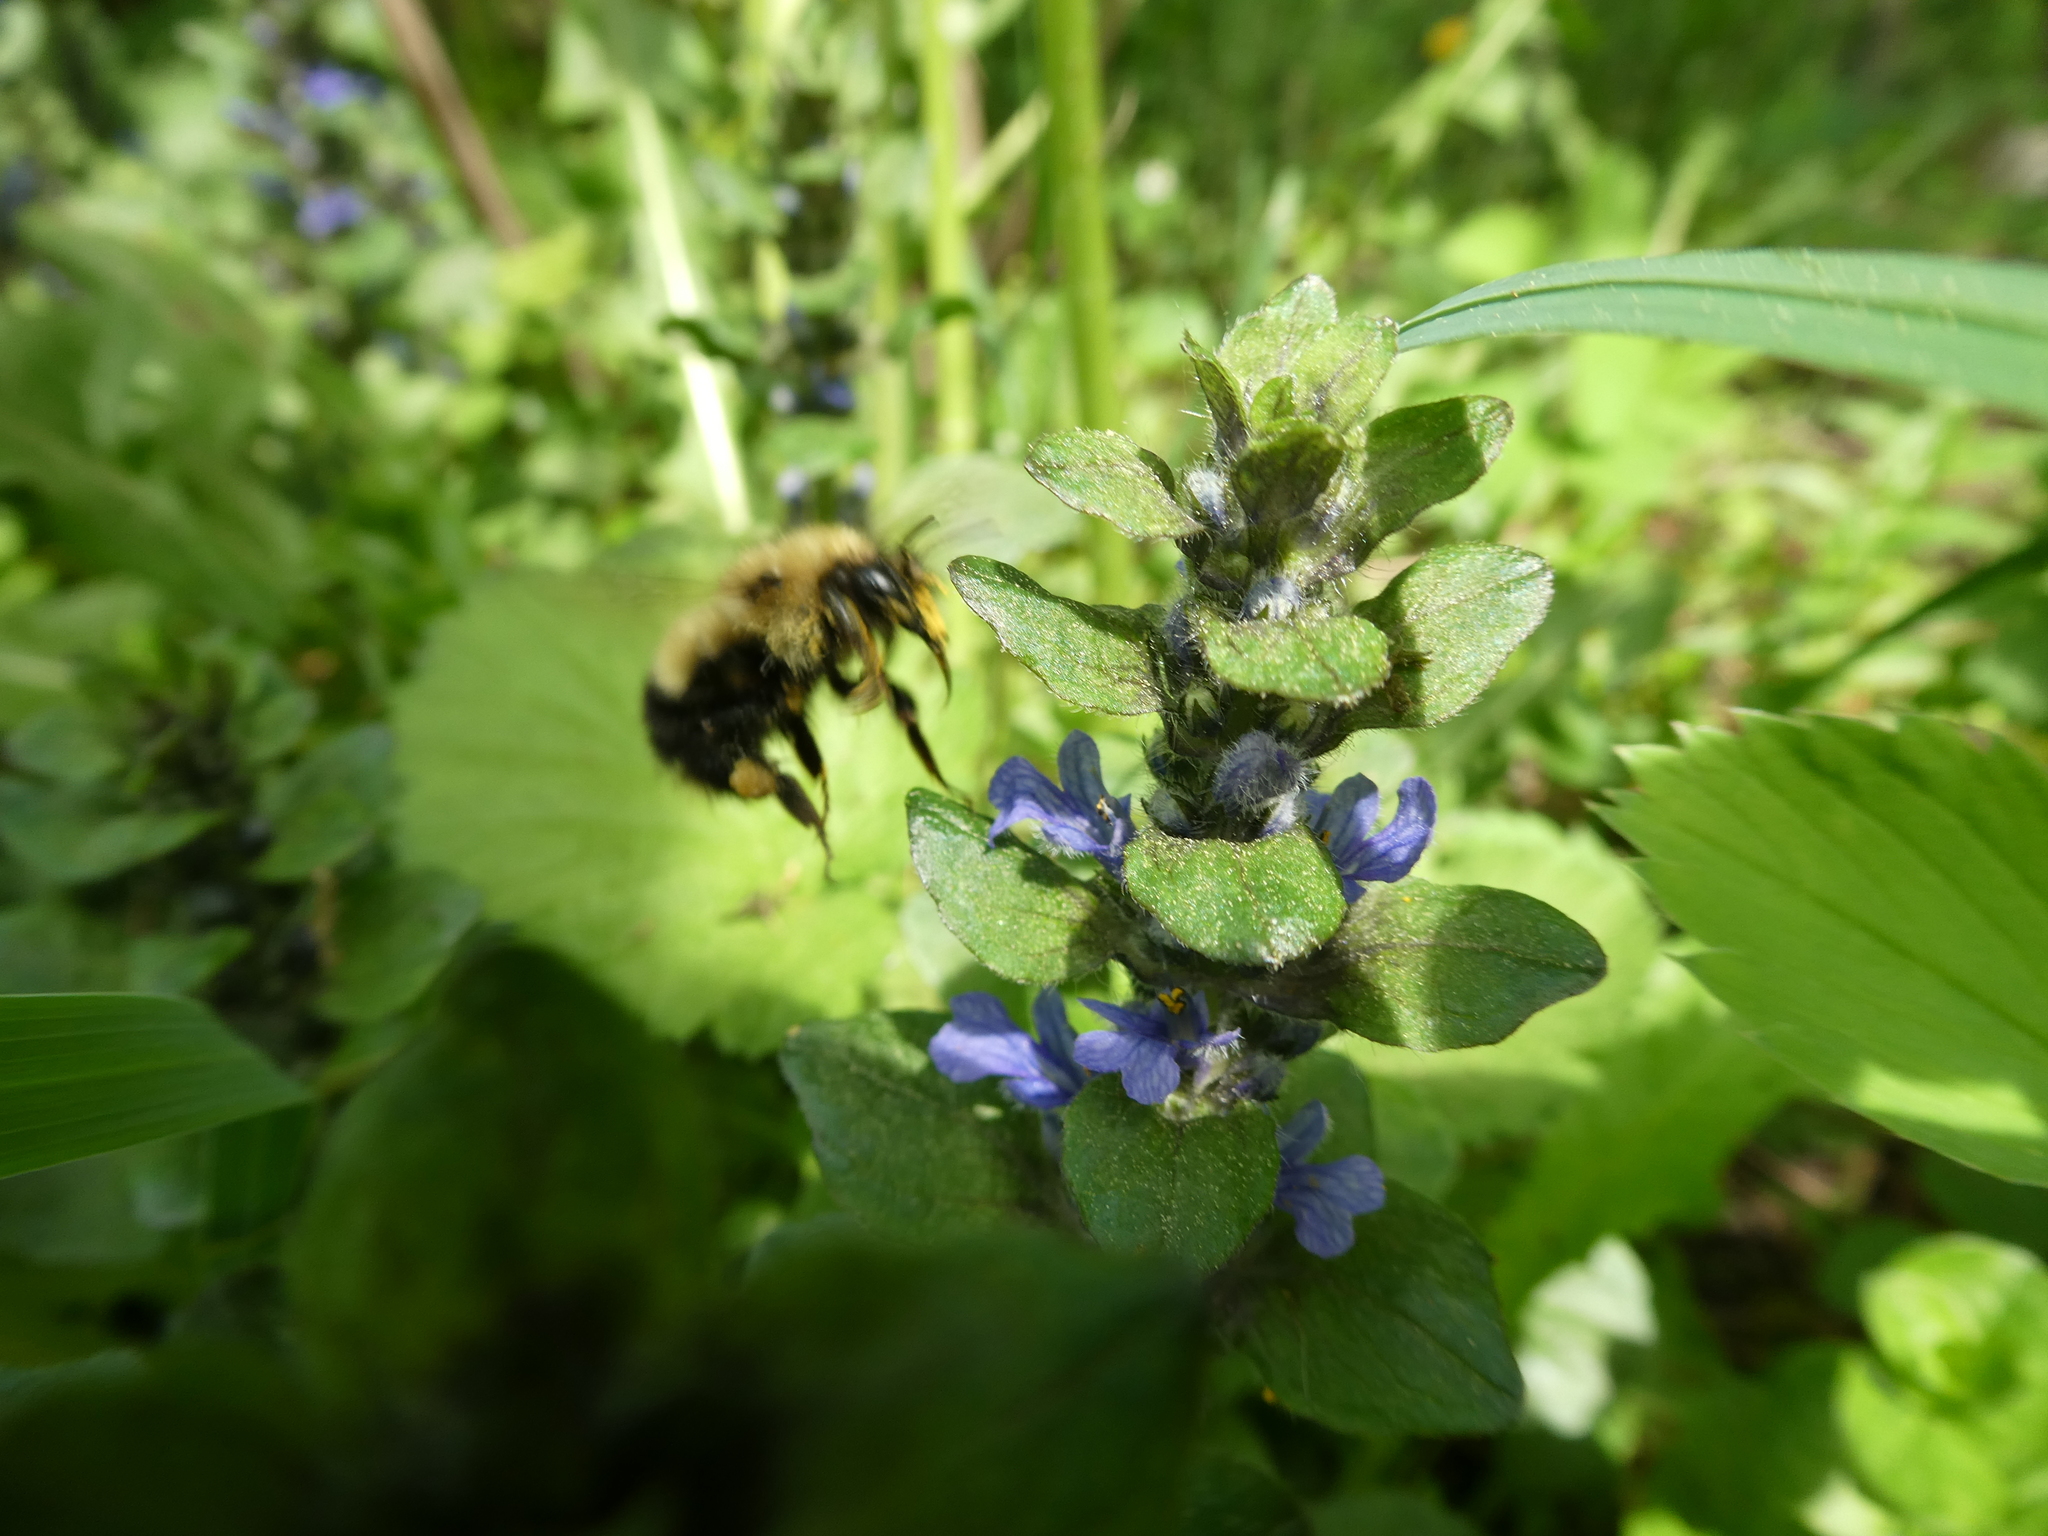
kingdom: Animalia
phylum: Arthropoda
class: Insecta
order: Hymenoptera
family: Apidae
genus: Pyrobombus
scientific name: Pyrobombus
